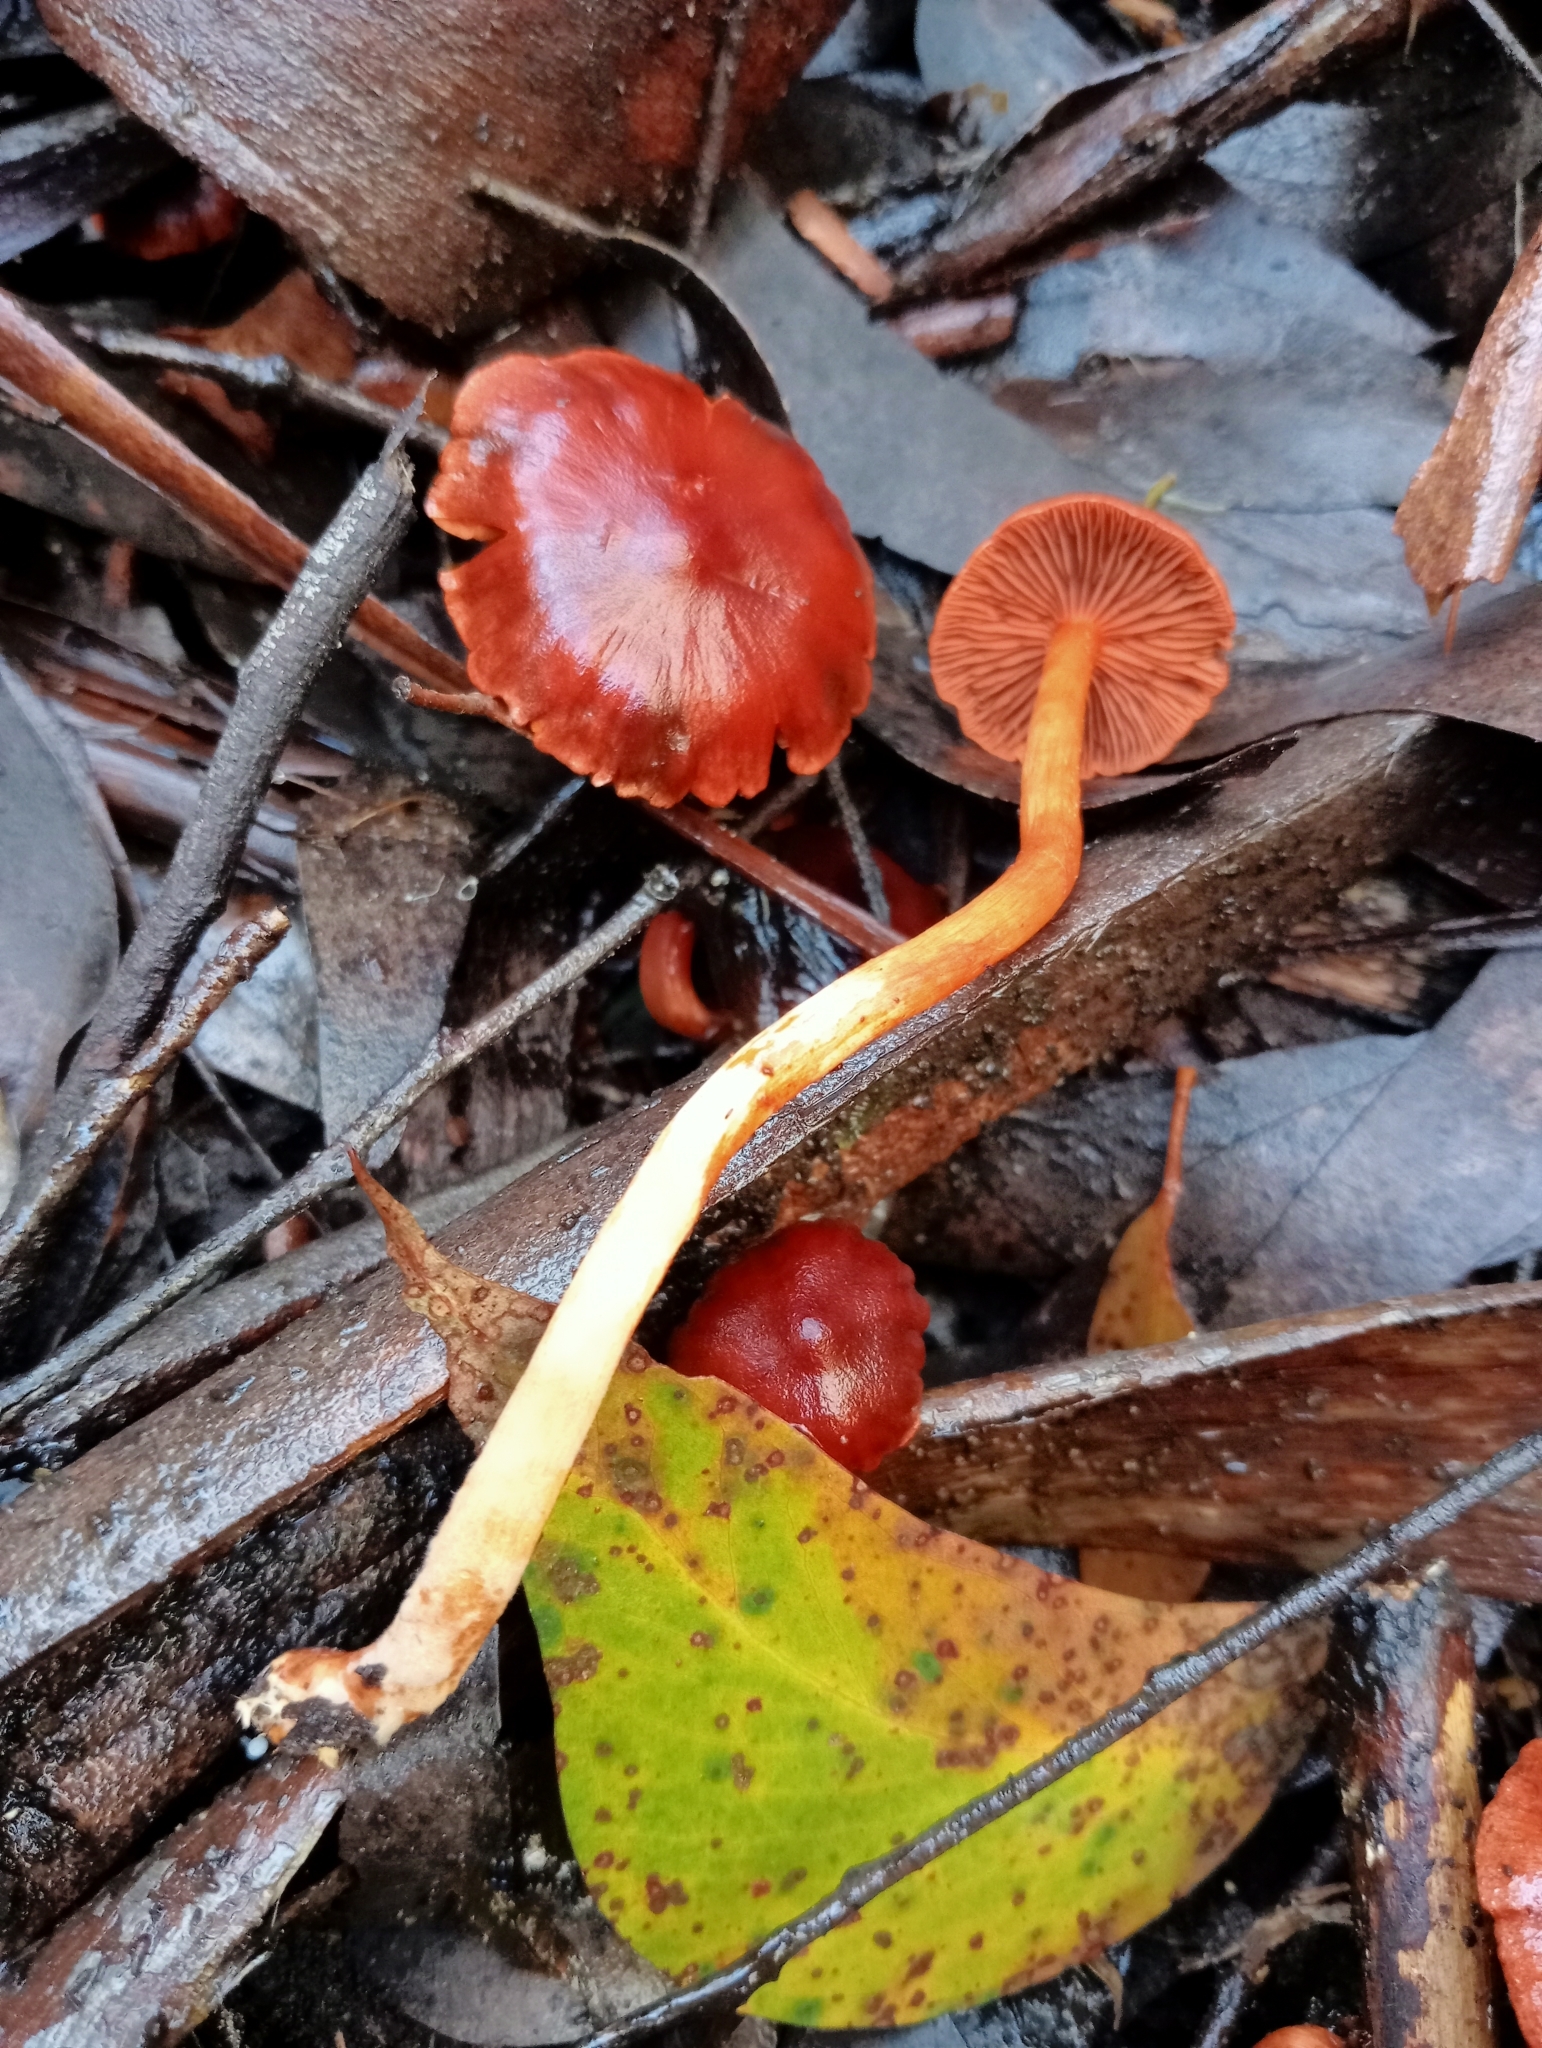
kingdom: Fungi
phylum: Basidiomycota
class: Agaricomycetes
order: Agaricales
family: Cortinariaceae
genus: Cortinarius
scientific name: Cortinarius
